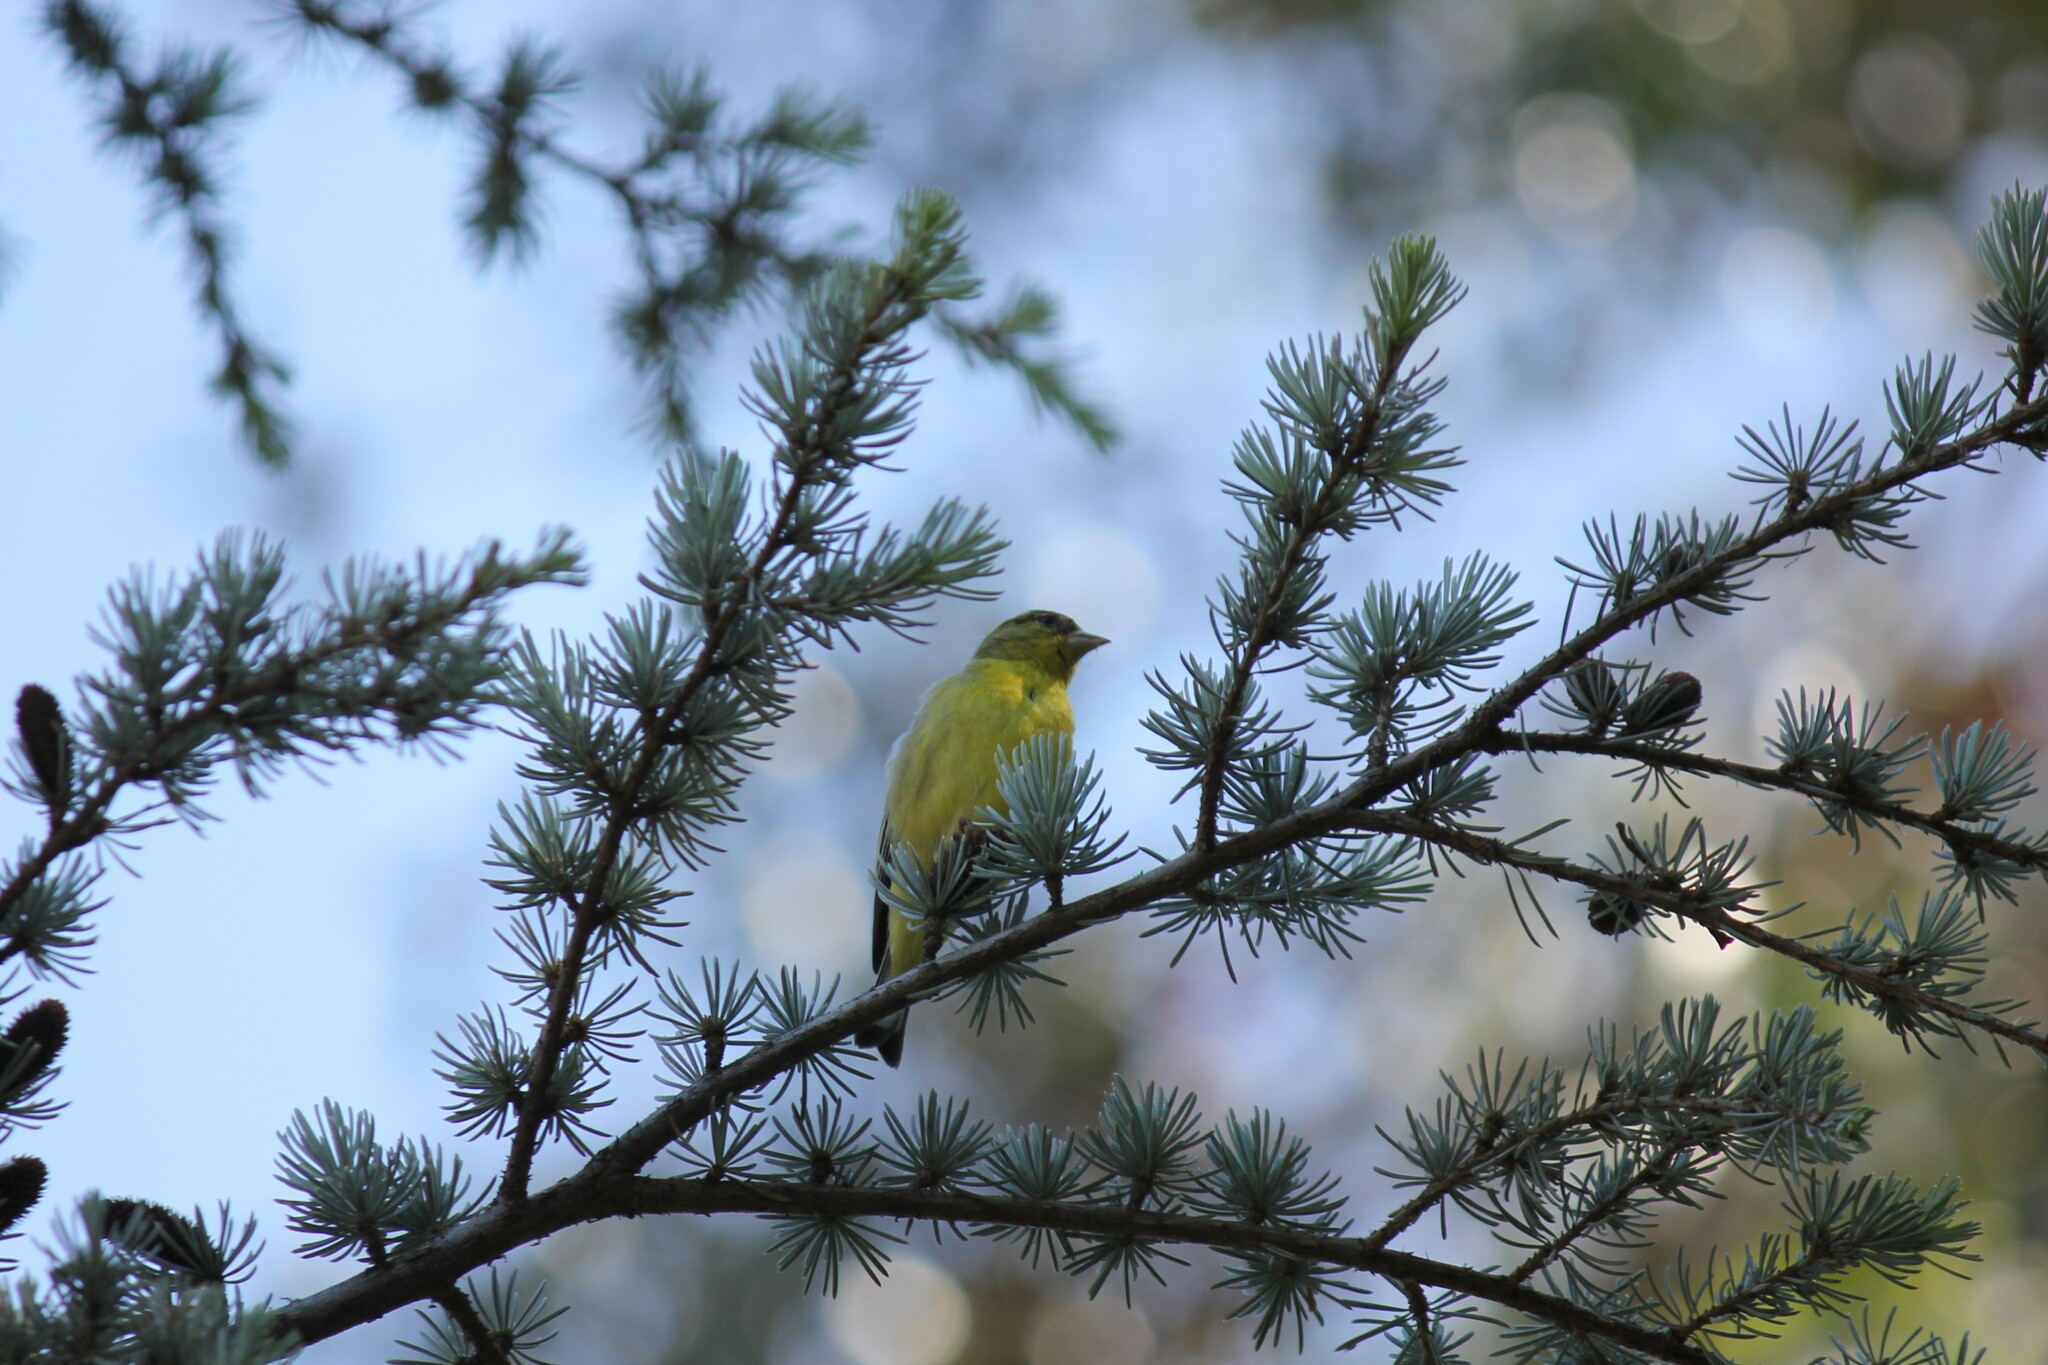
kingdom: Animalia
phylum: Chordata
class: Aves
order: Passeriformes
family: Fringillidae
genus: Spinus
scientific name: Spinus psaltria
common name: Lesser goldfinch
